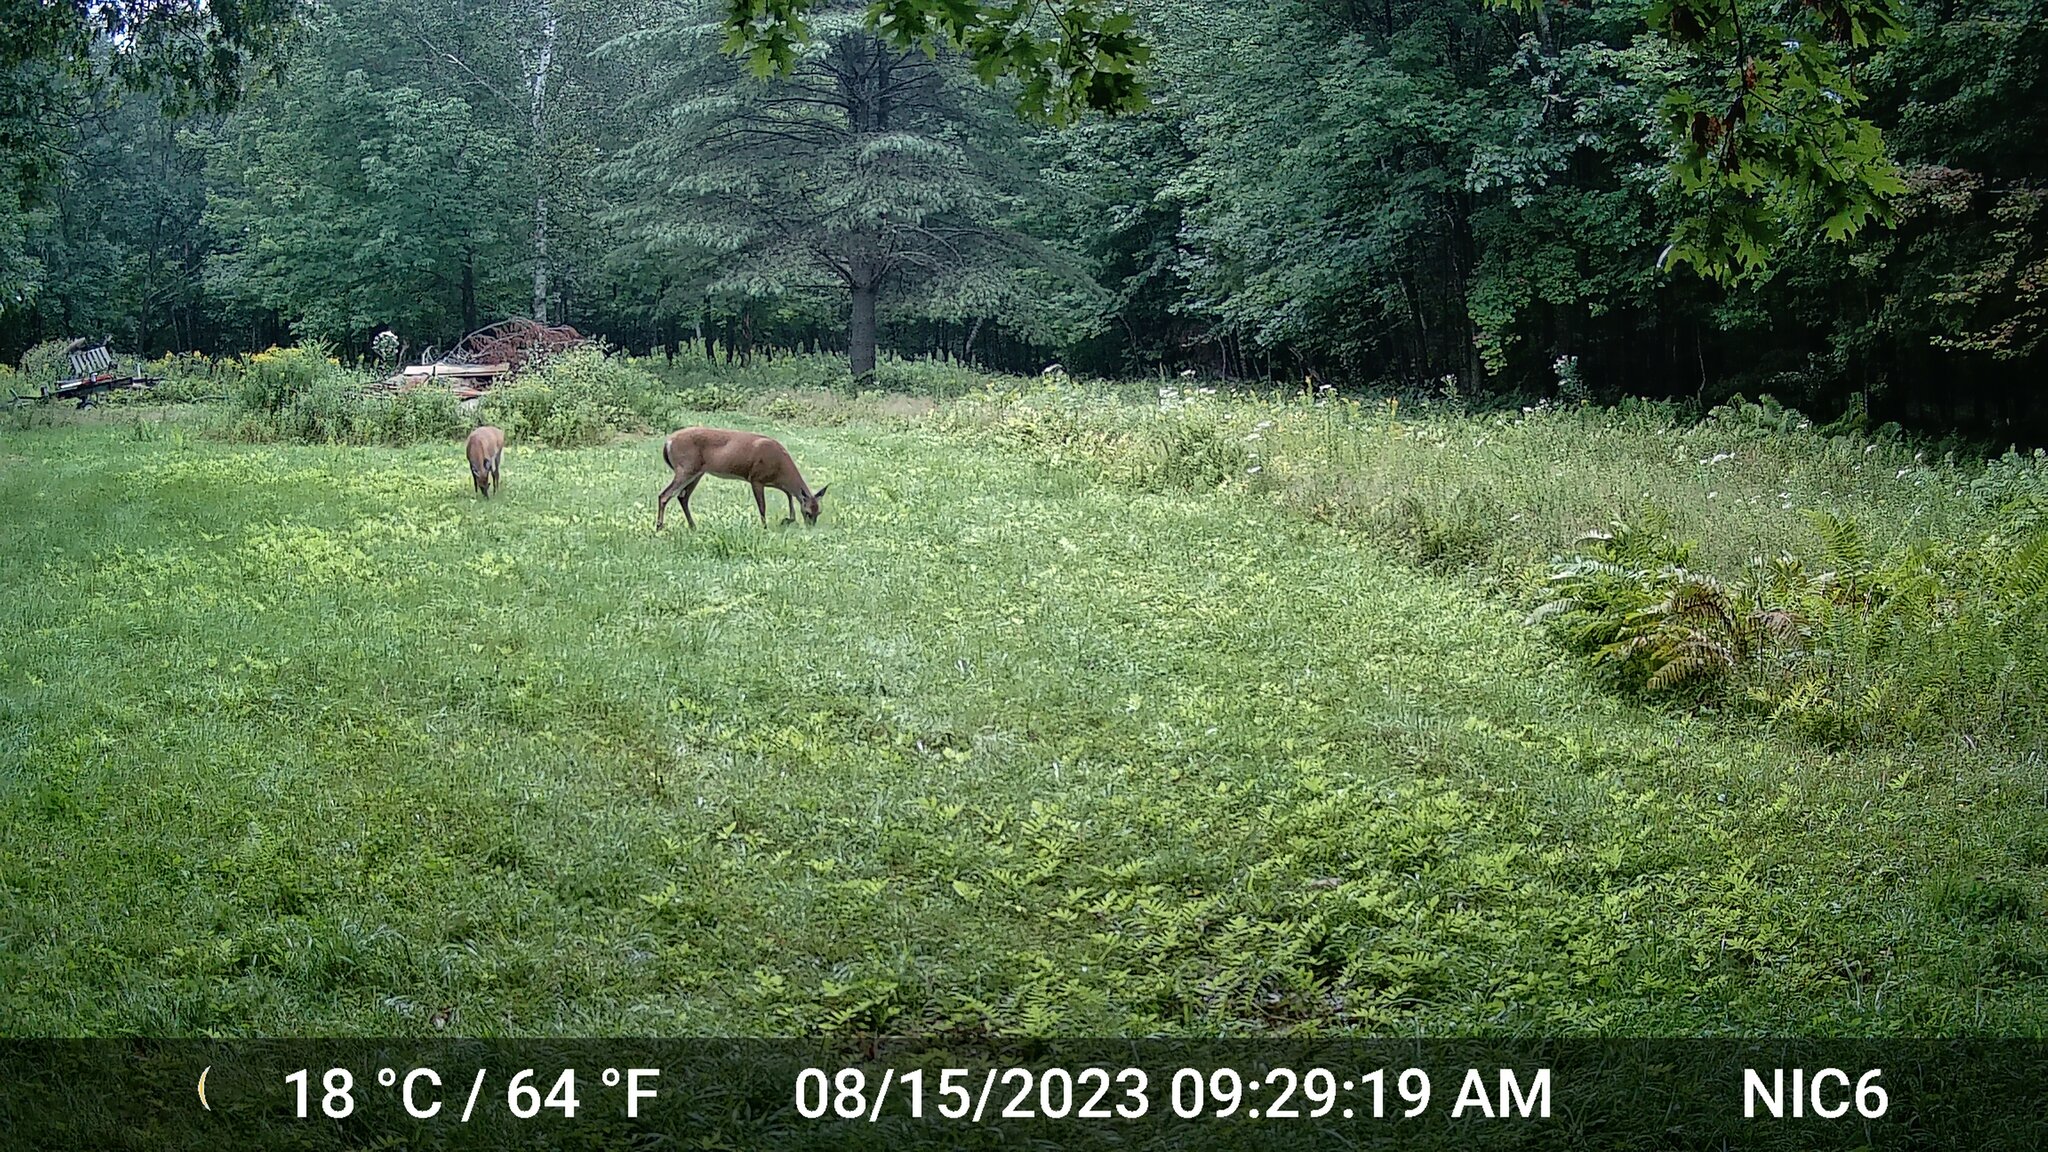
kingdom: Animalia
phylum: Chordata
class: Mammalia
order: Artiodactyla
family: Cervidae
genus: Odocoileus
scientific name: Odocoileus virginianus
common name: White-tailed deer
